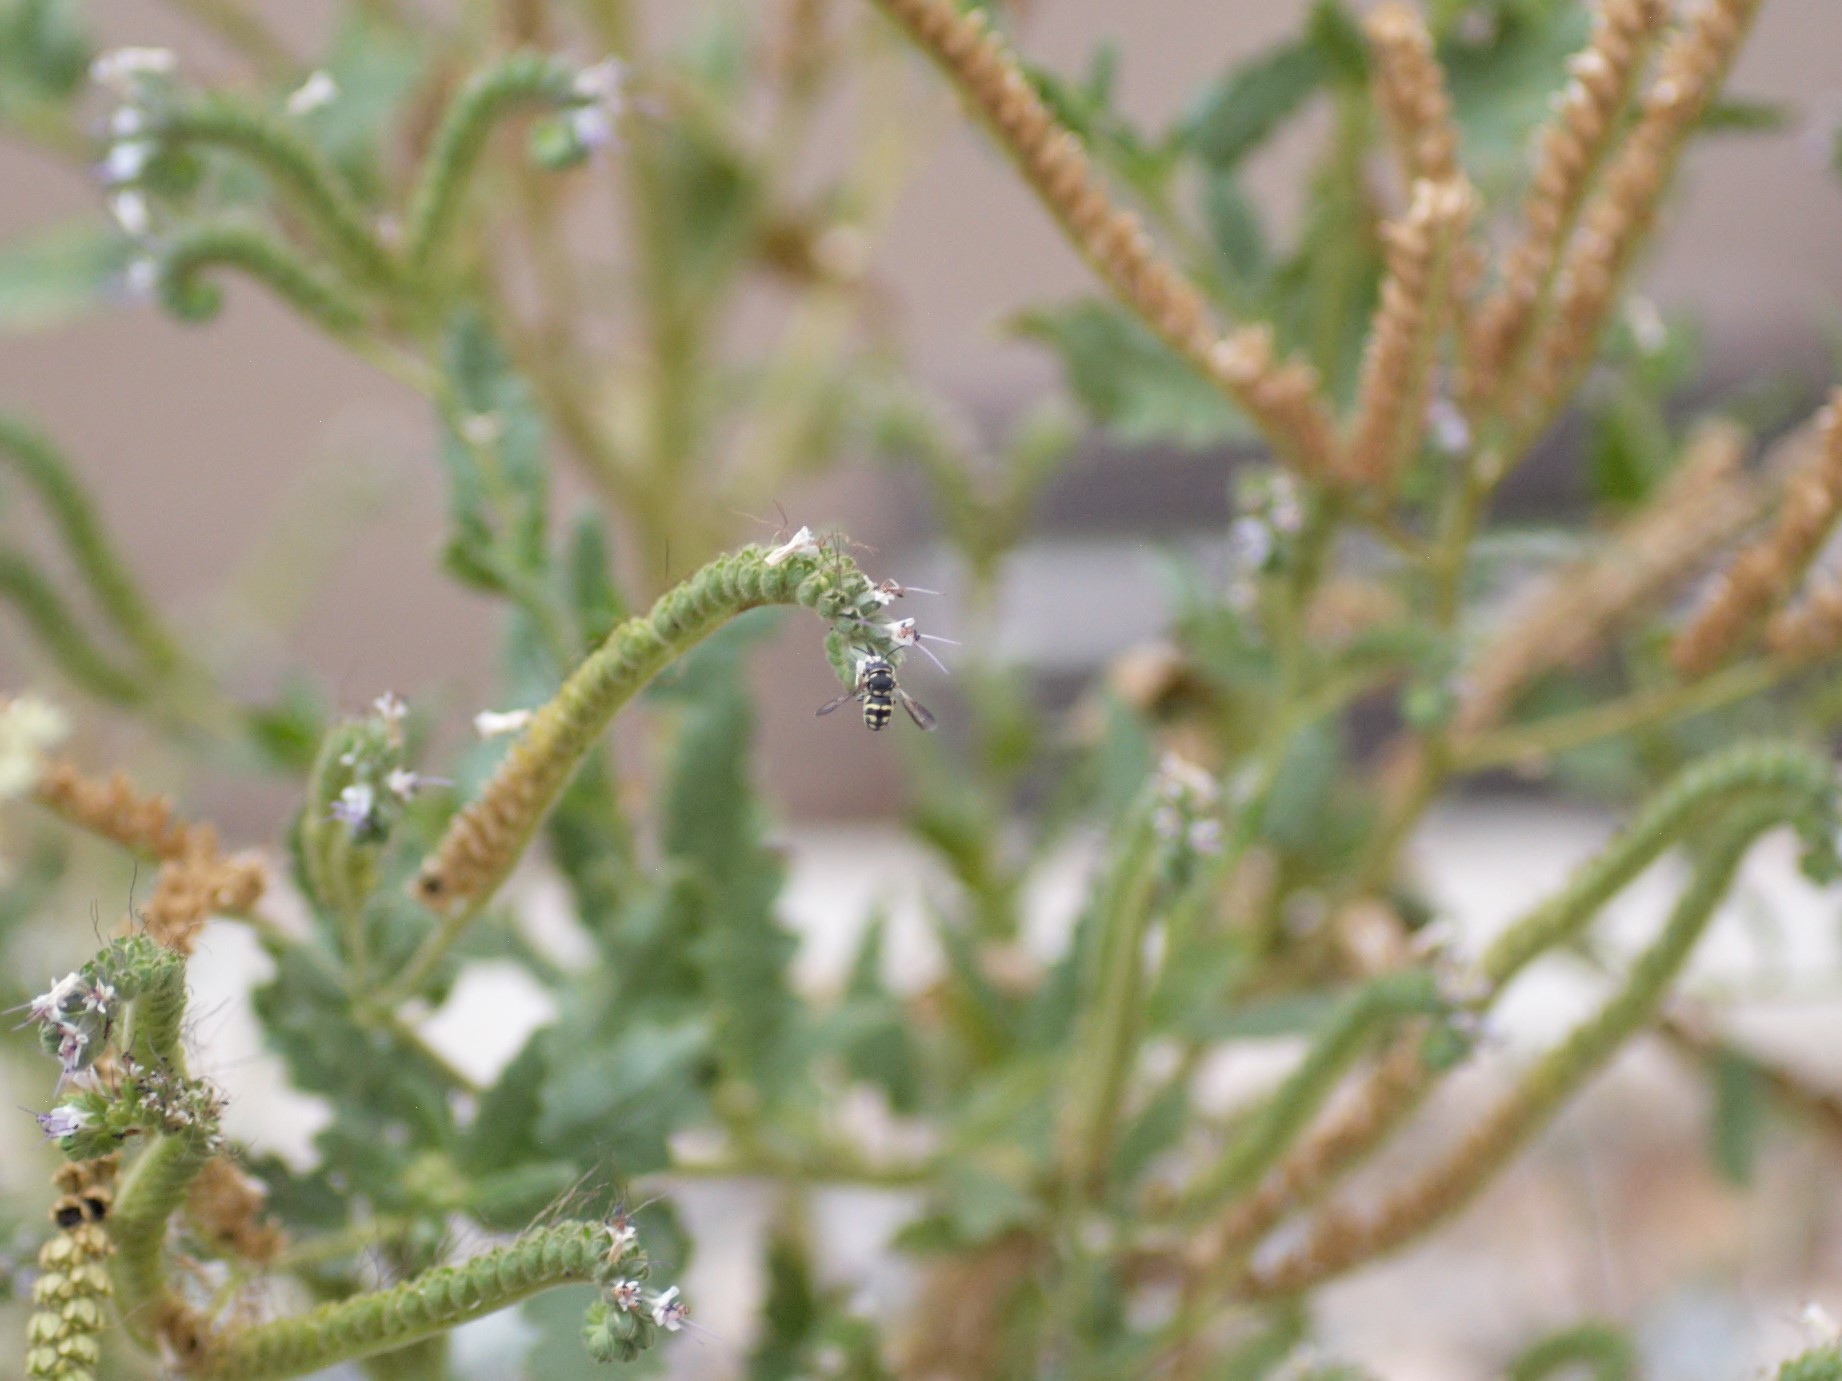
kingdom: Animalia
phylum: Arthropoda
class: Insecta
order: Hymenoptera
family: Megachilidae
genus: Anthidiellum
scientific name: Anthidiellum notatum
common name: Northern rotund-resin bee
